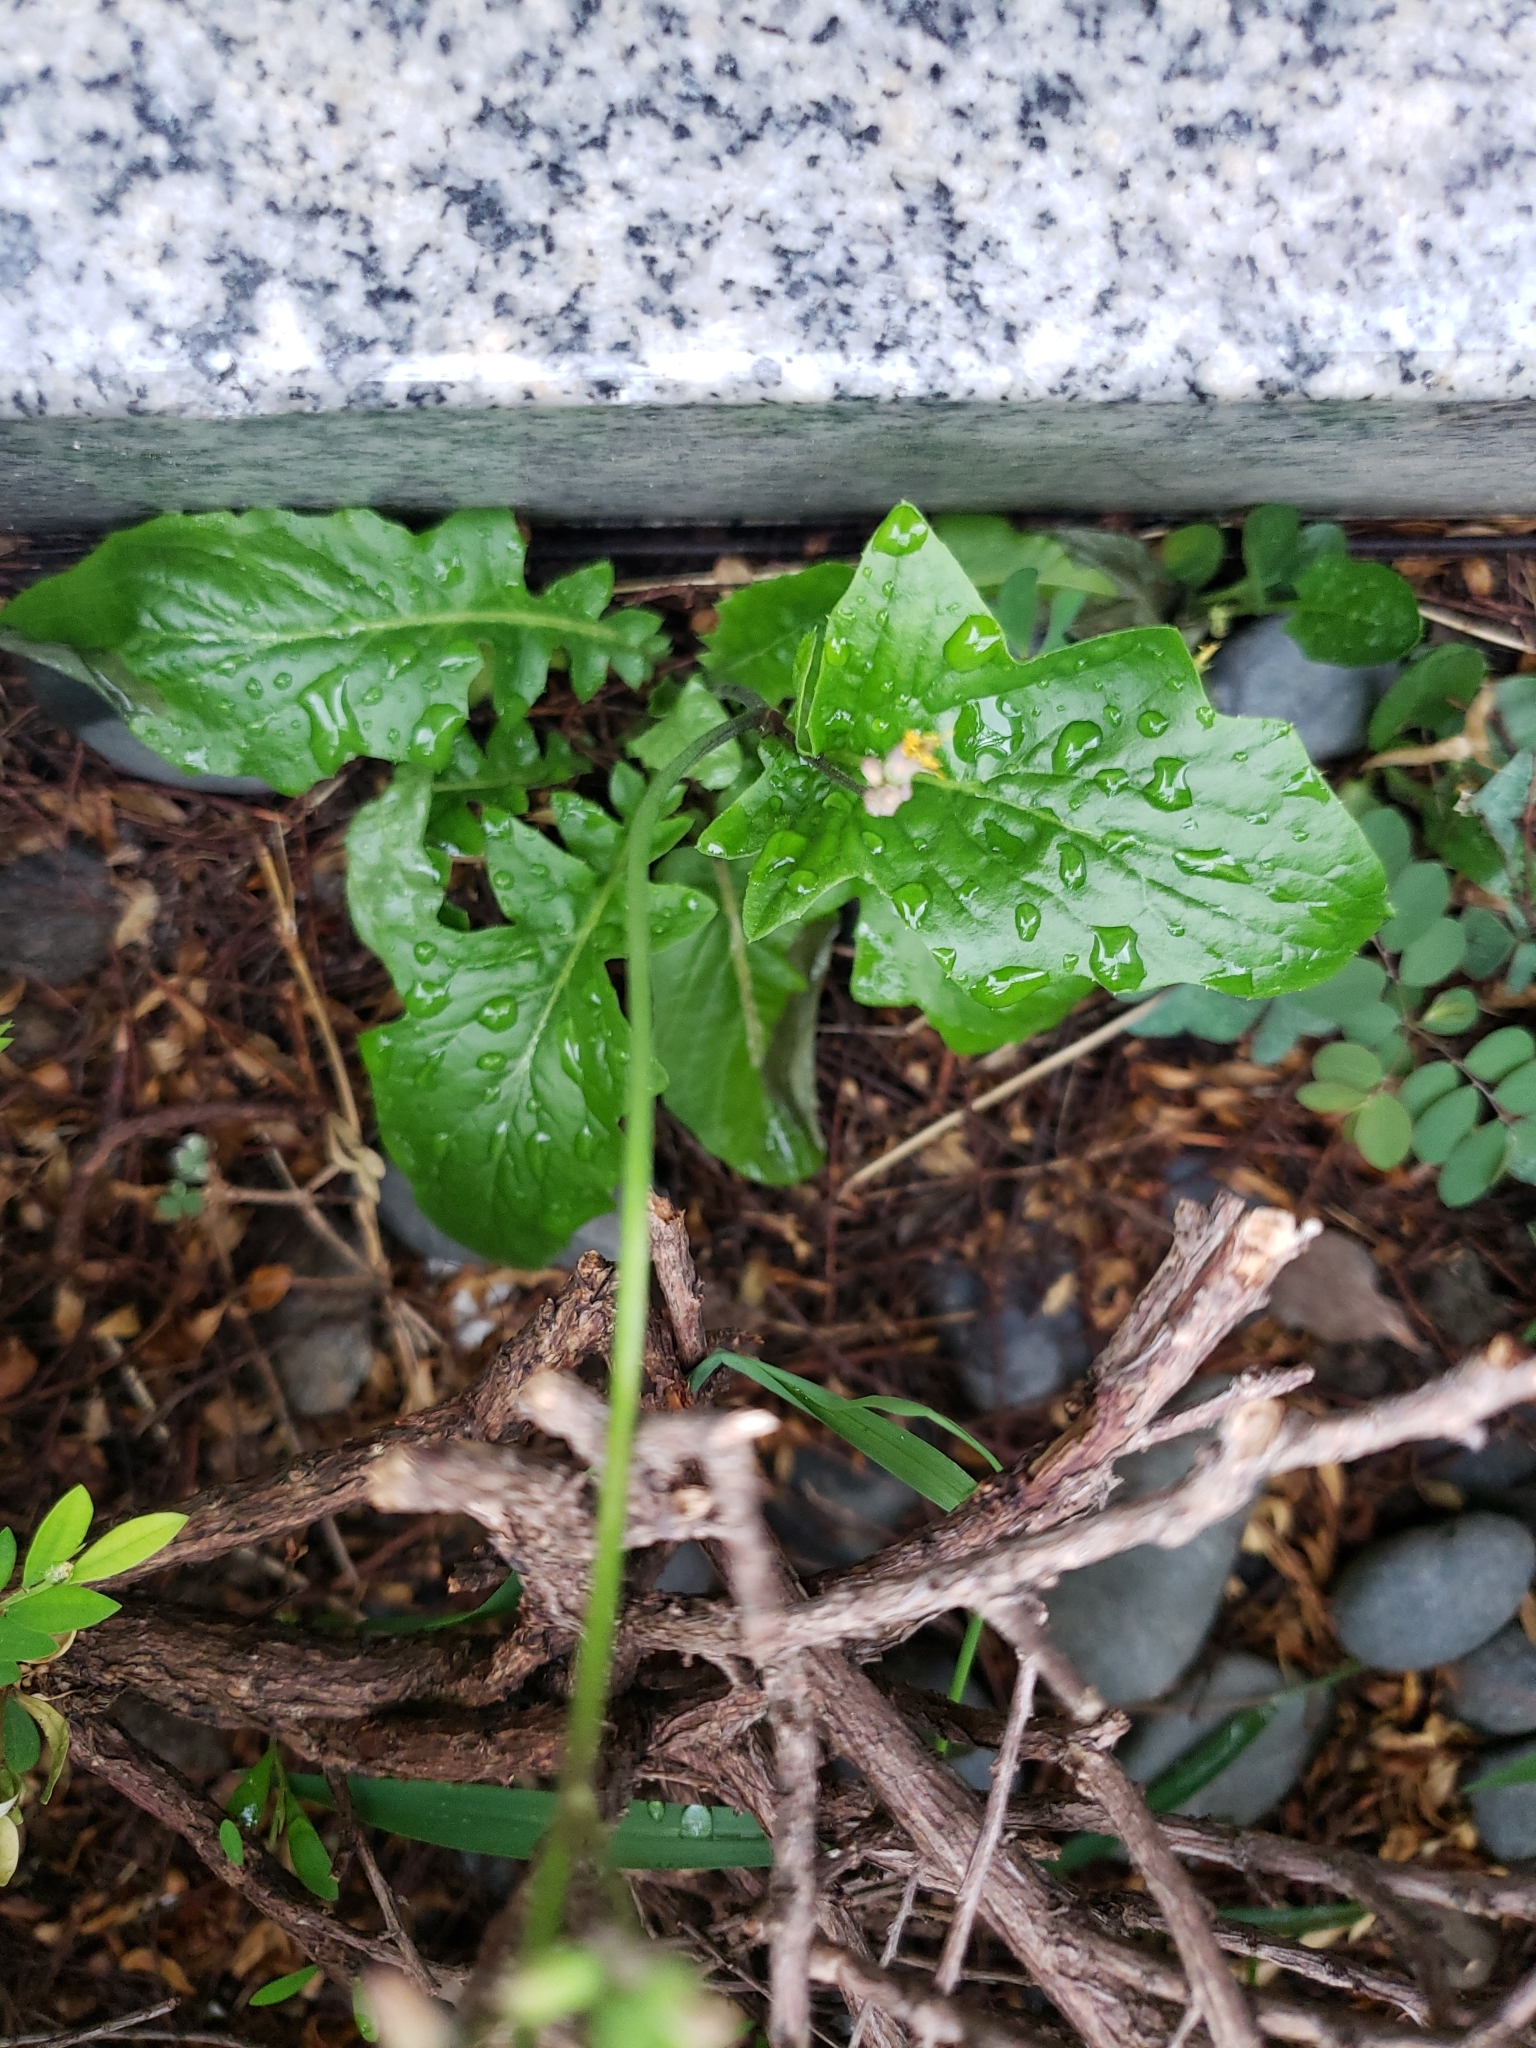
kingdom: Plantae
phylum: Tracheophyta
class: Magnoliopsida
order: Asterales
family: Asteraceae
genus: Youngia
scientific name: Youngia japonica
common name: Oriental false hawksbeard
